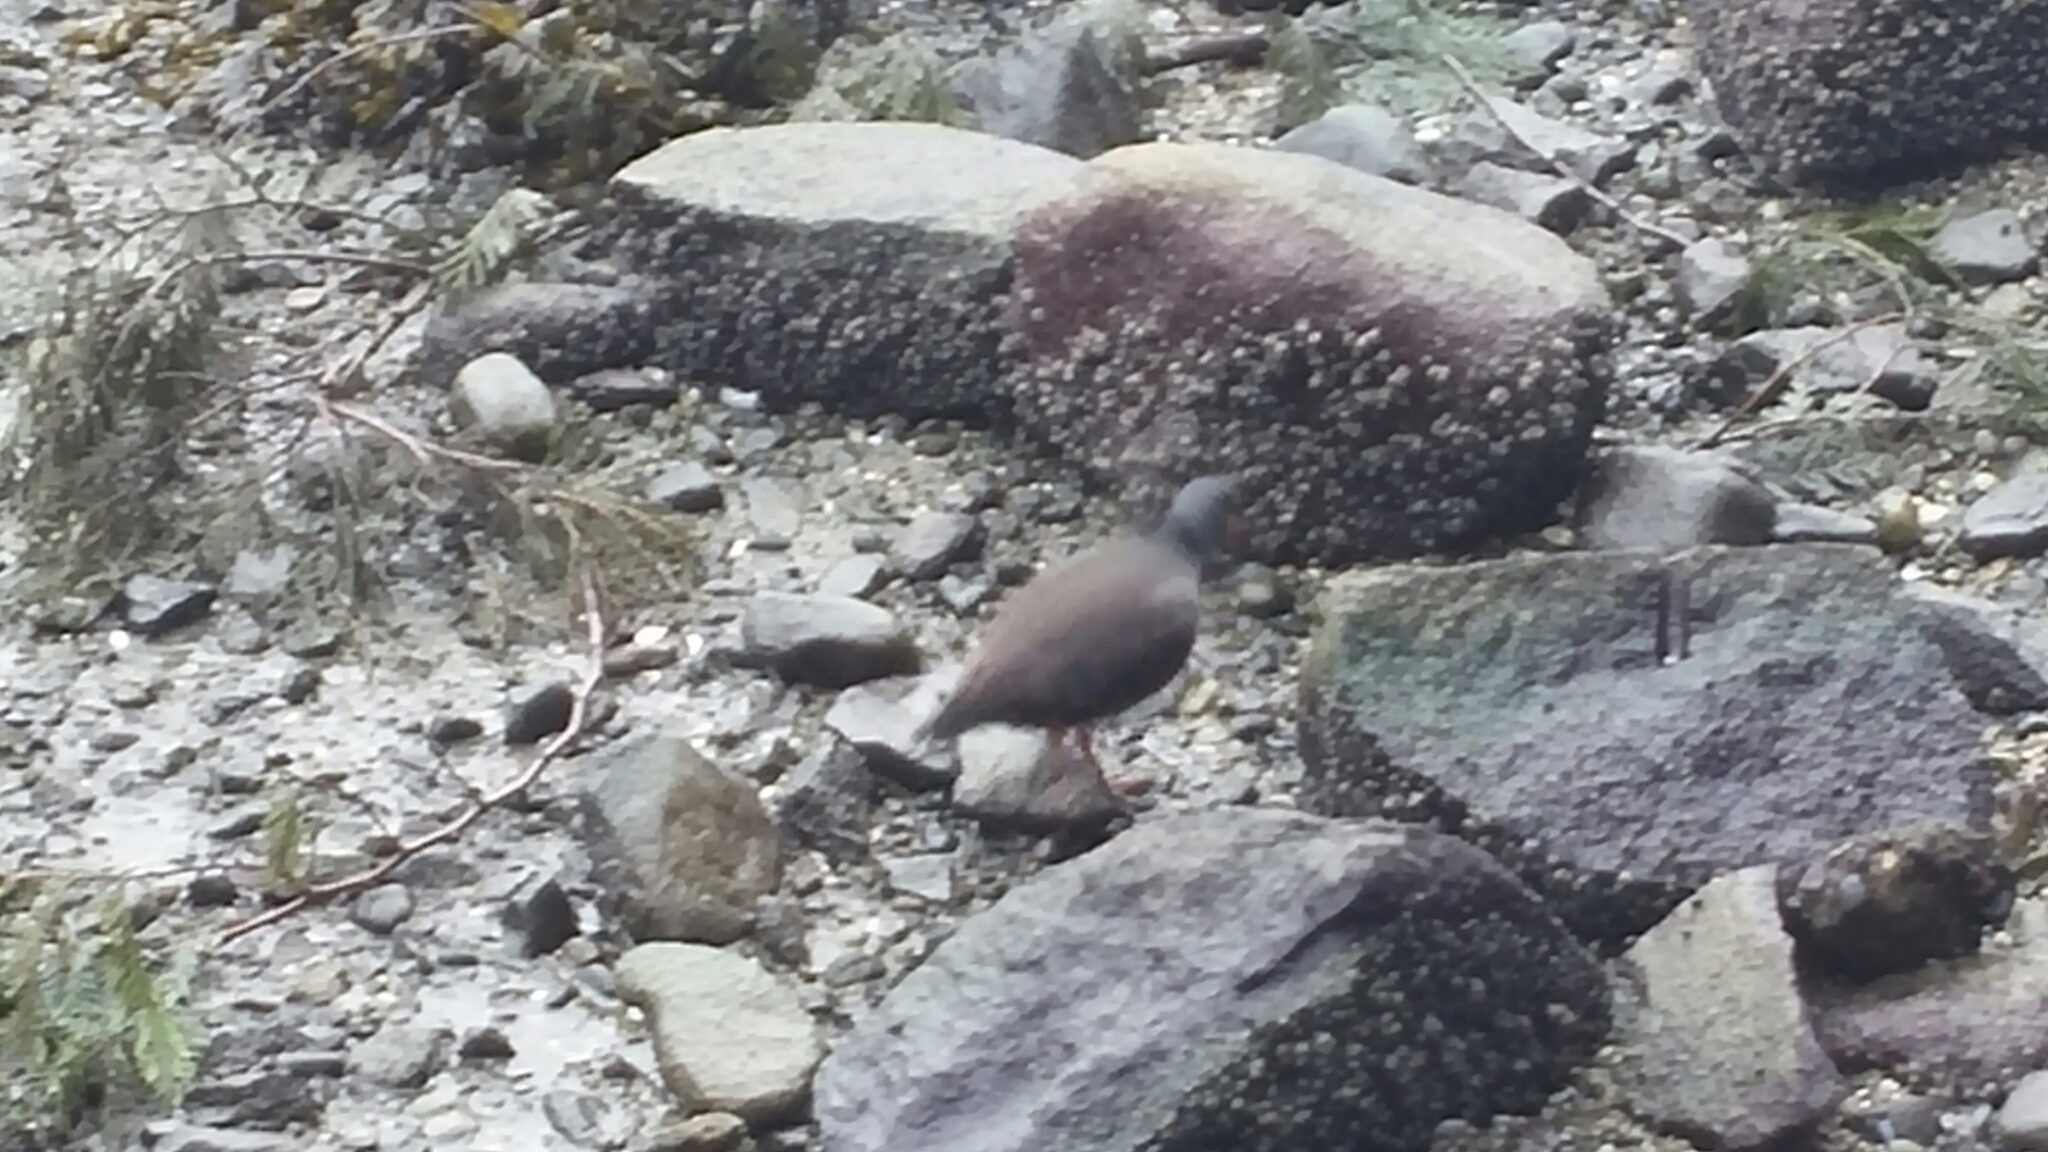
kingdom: Animalia
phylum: Chordata
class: Aves
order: Charadriiformes
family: Haematopodidae
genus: Haematopus
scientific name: Haematopus bachmani
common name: Black oystercatcher
